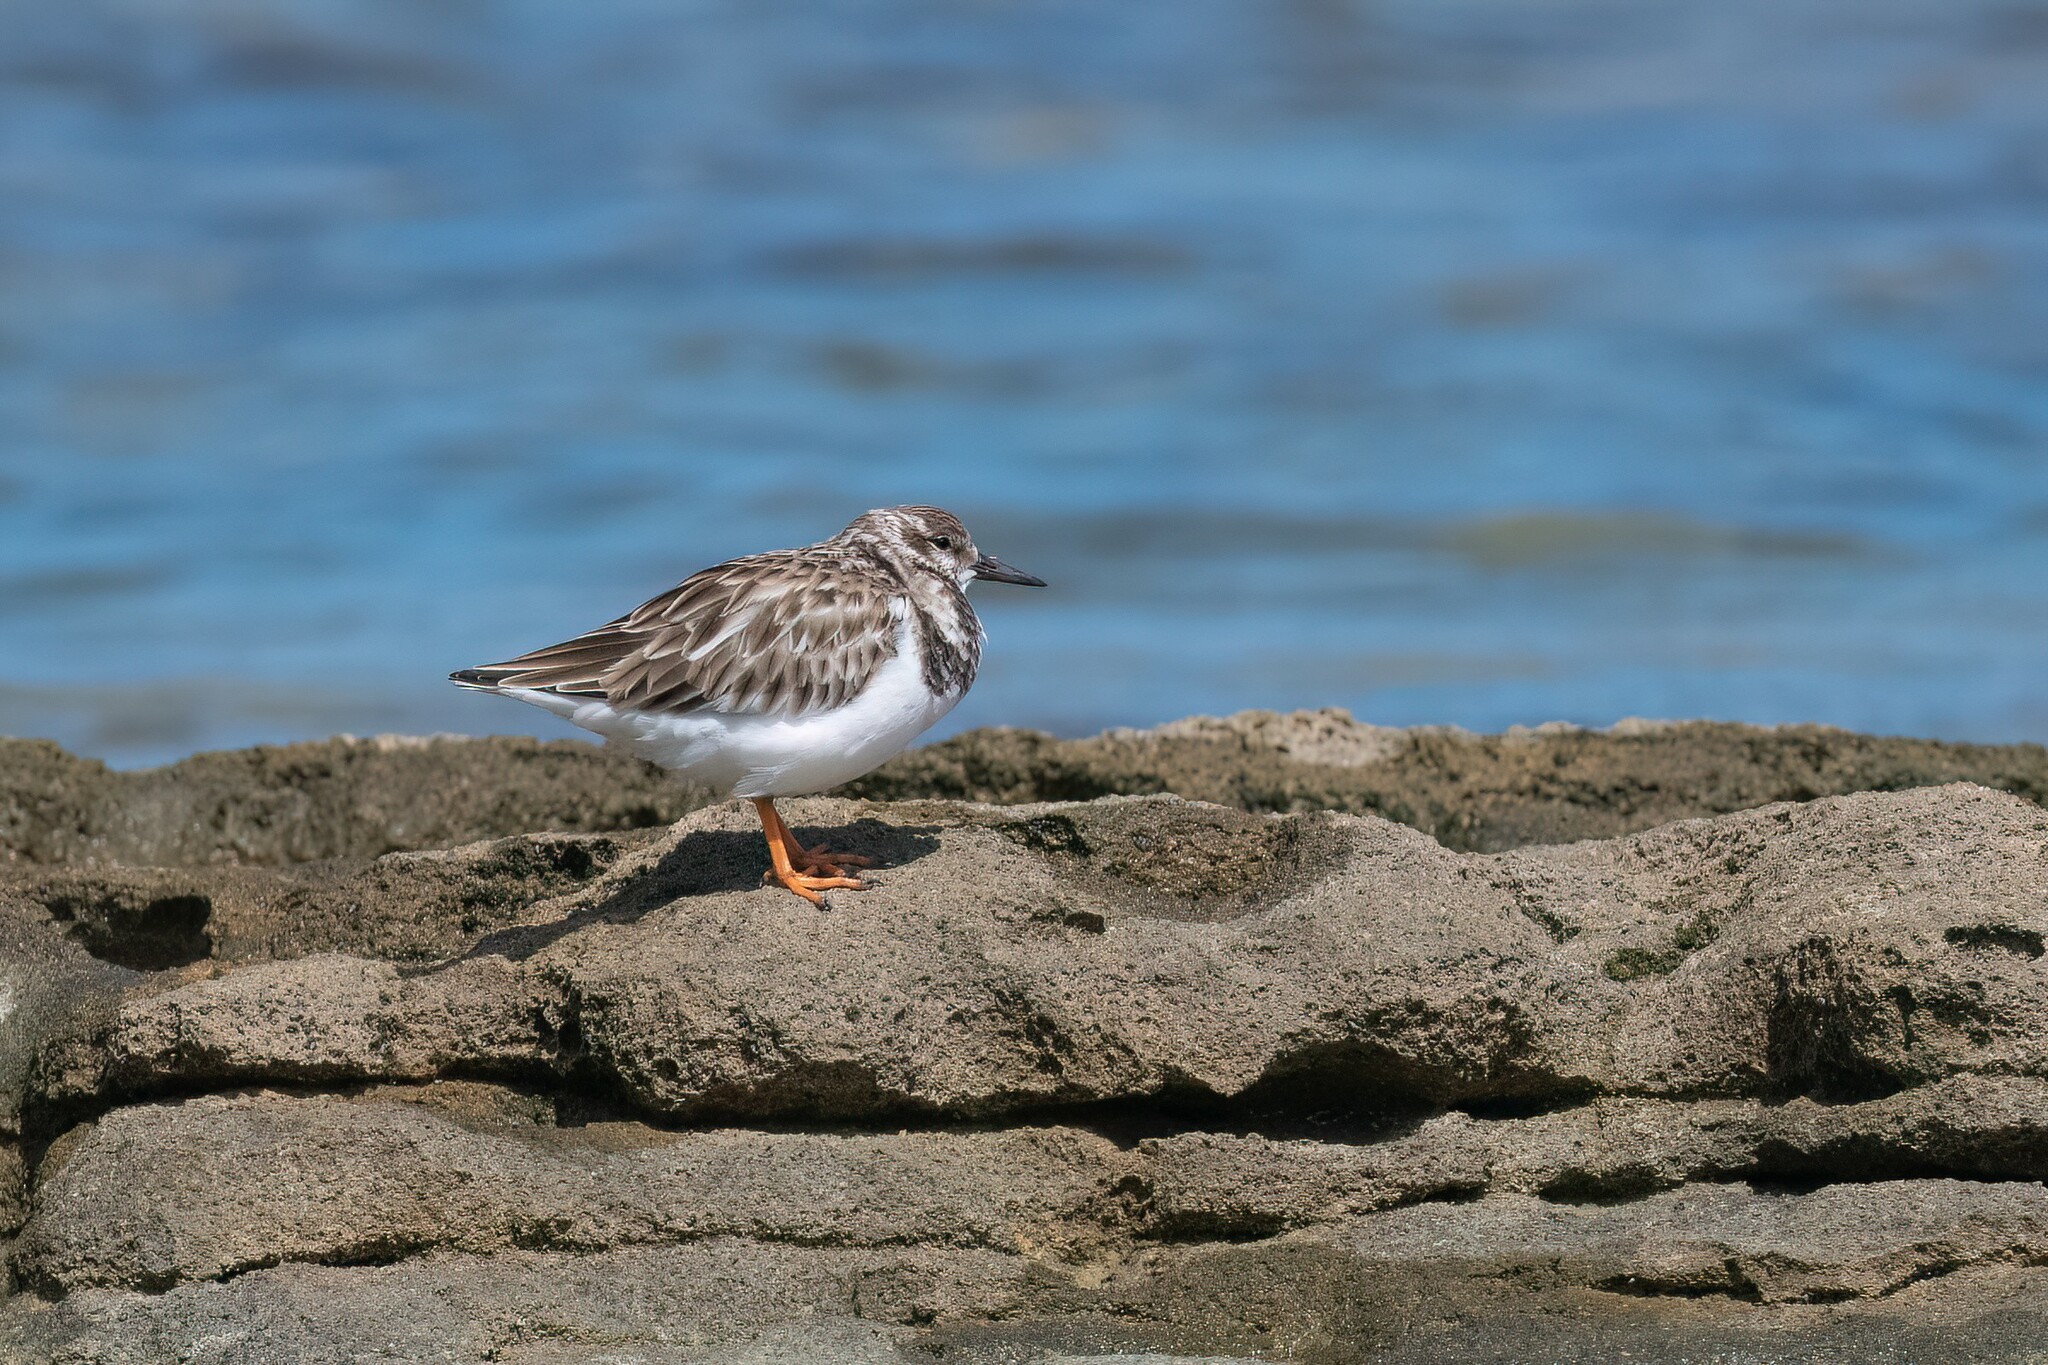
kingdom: Animalia
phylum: Chordata
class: Aves
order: Charadriiformes
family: Scolopacidae
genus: Arenaria
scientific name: Arenaria interpres
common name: Ruddy turnstone
